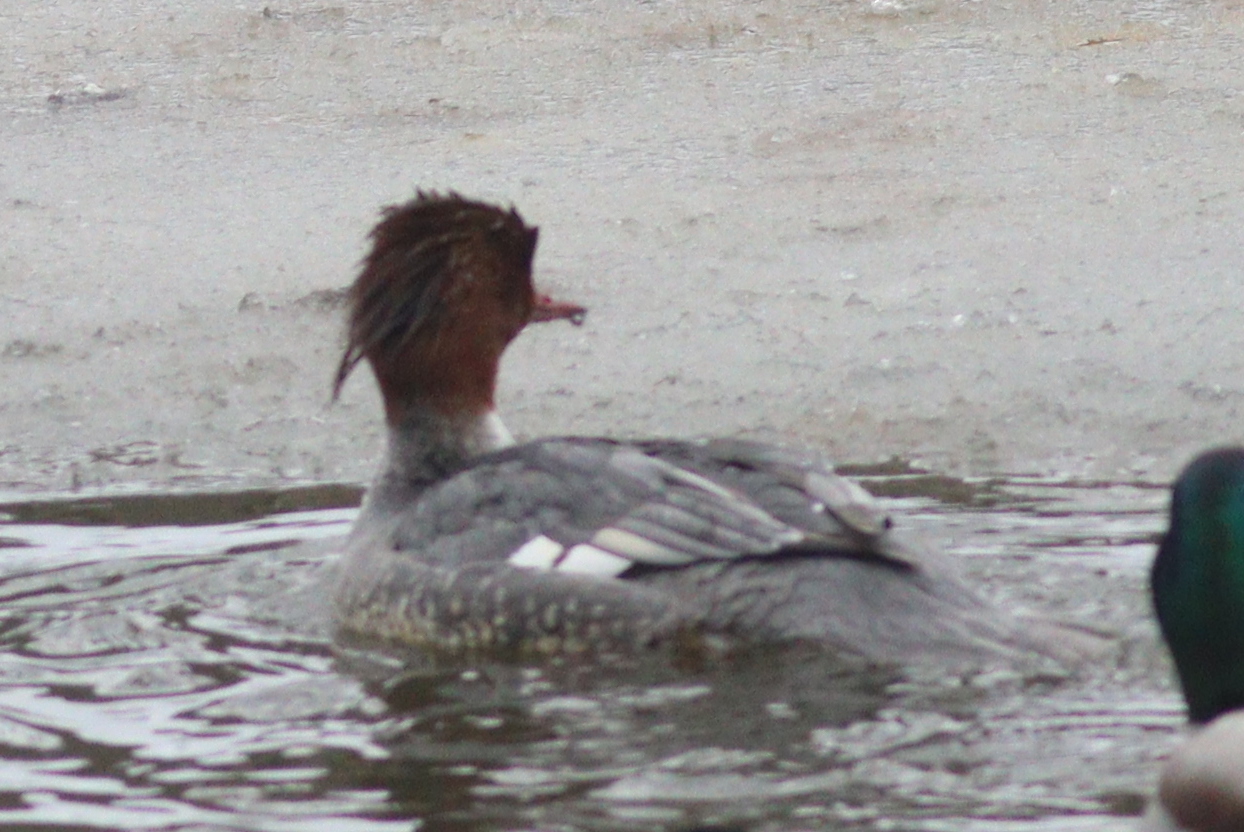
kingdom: Animalia
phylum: Chordata
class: Aves
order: Anseriformes
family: Anatidae
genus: Mergus
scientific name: Mergus merganser
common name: Common merganser
